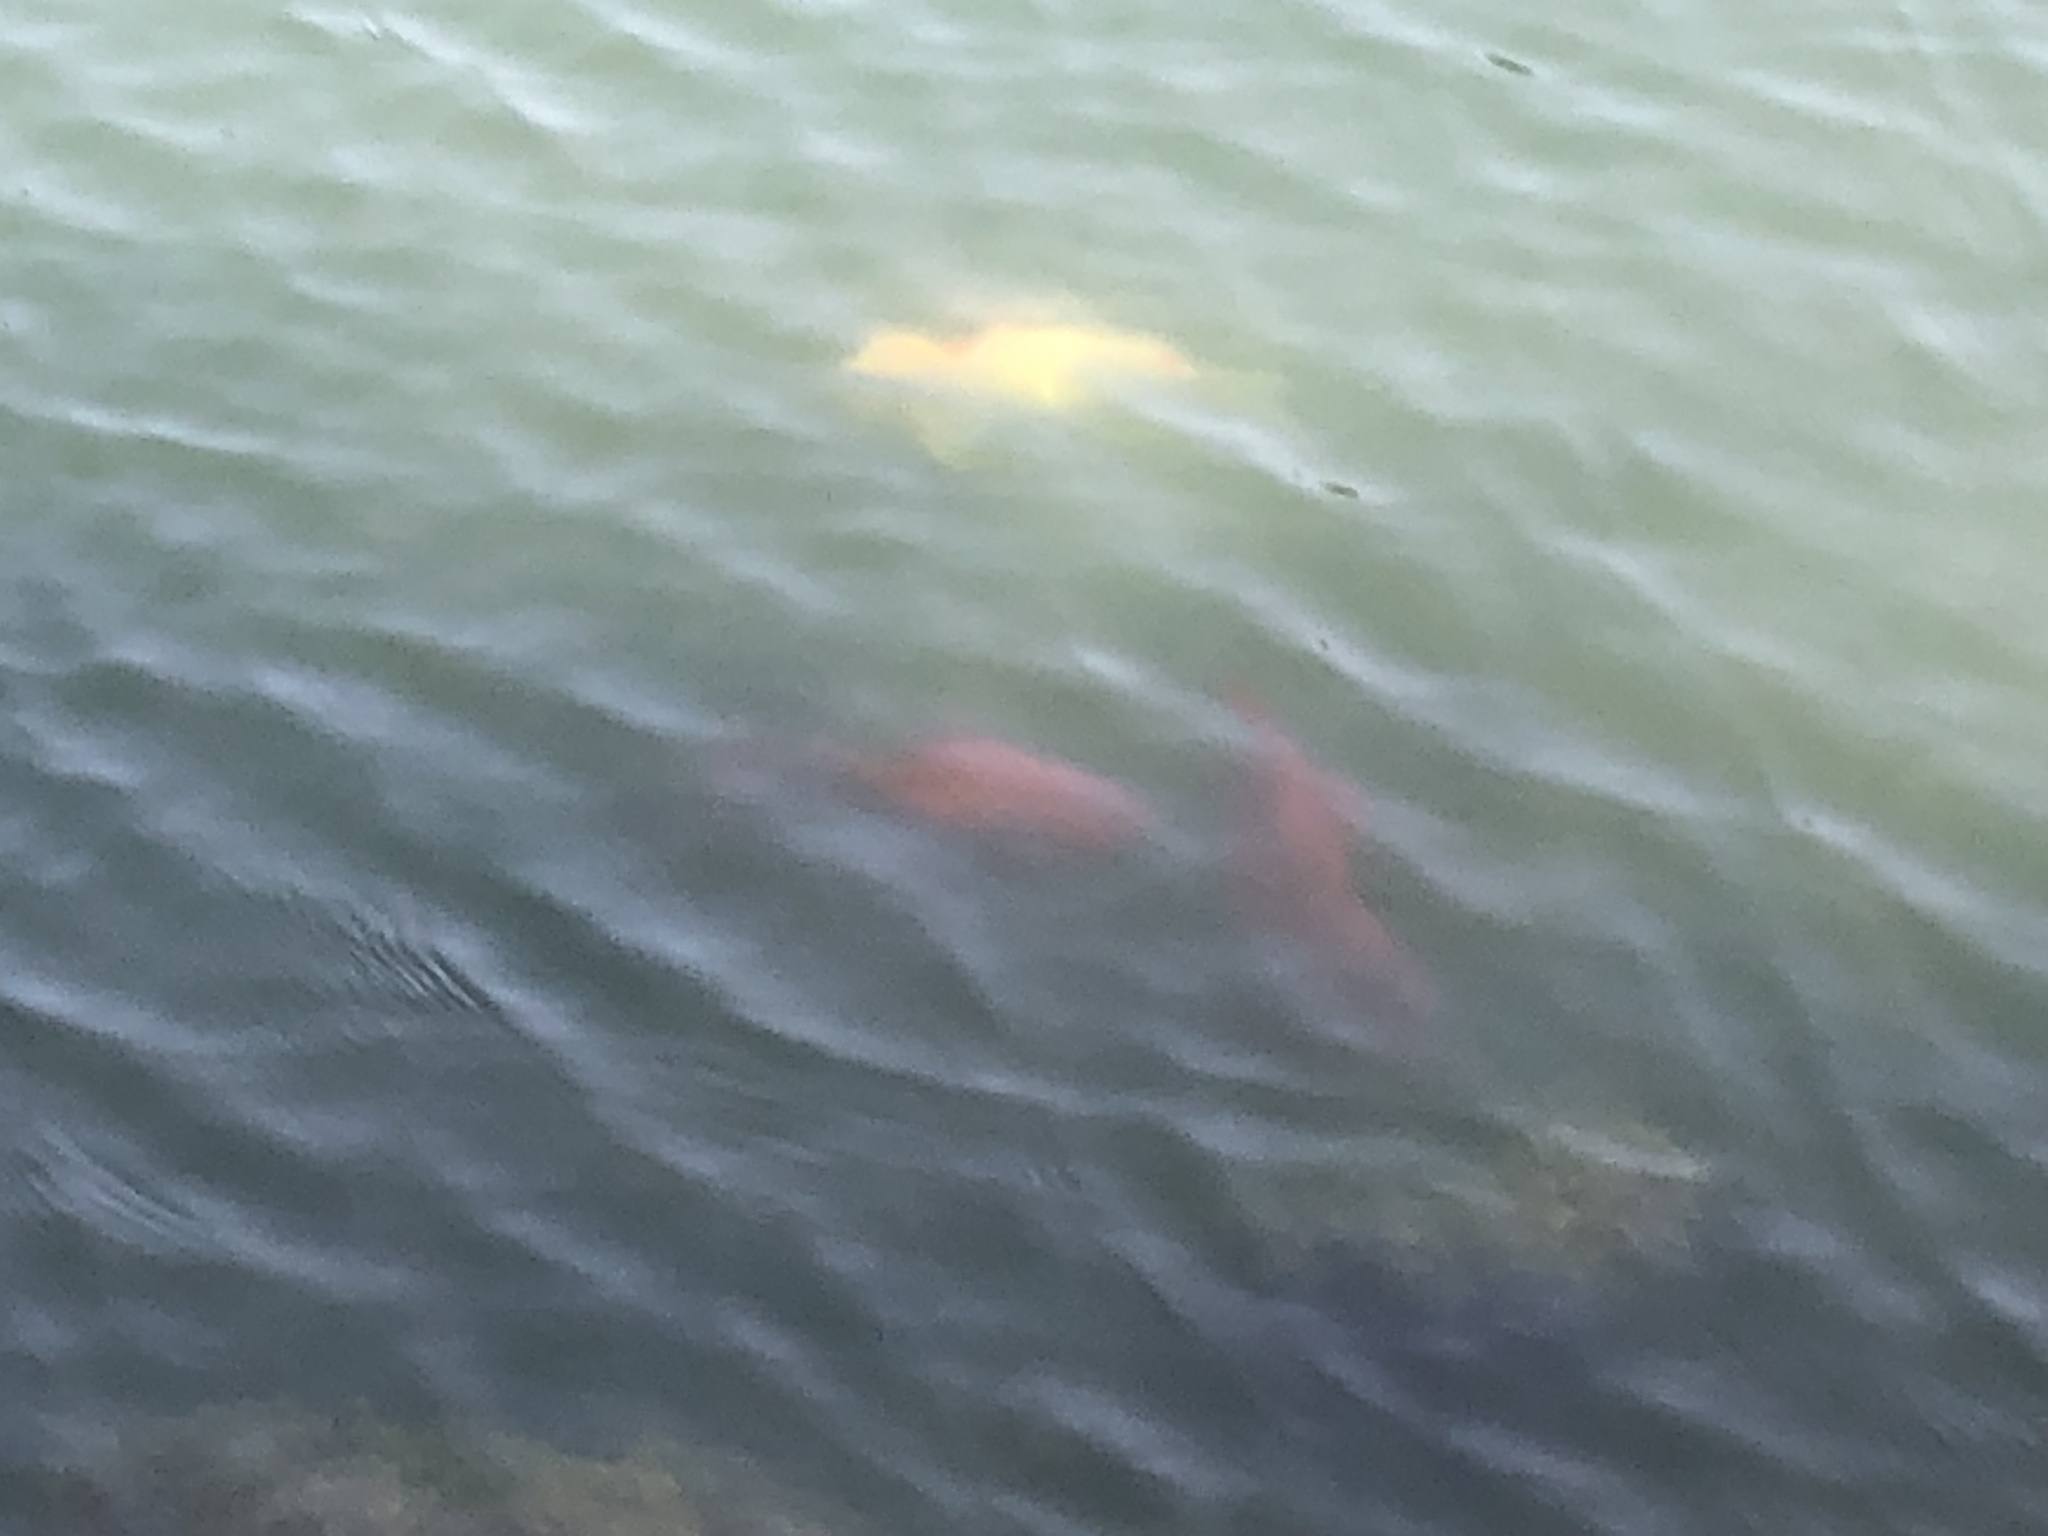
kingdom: Animalia
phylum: Chordata
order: Cypriniformes
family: Cyprinidae
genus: Carassius
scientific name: Carassius auratus
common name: Goldfish
